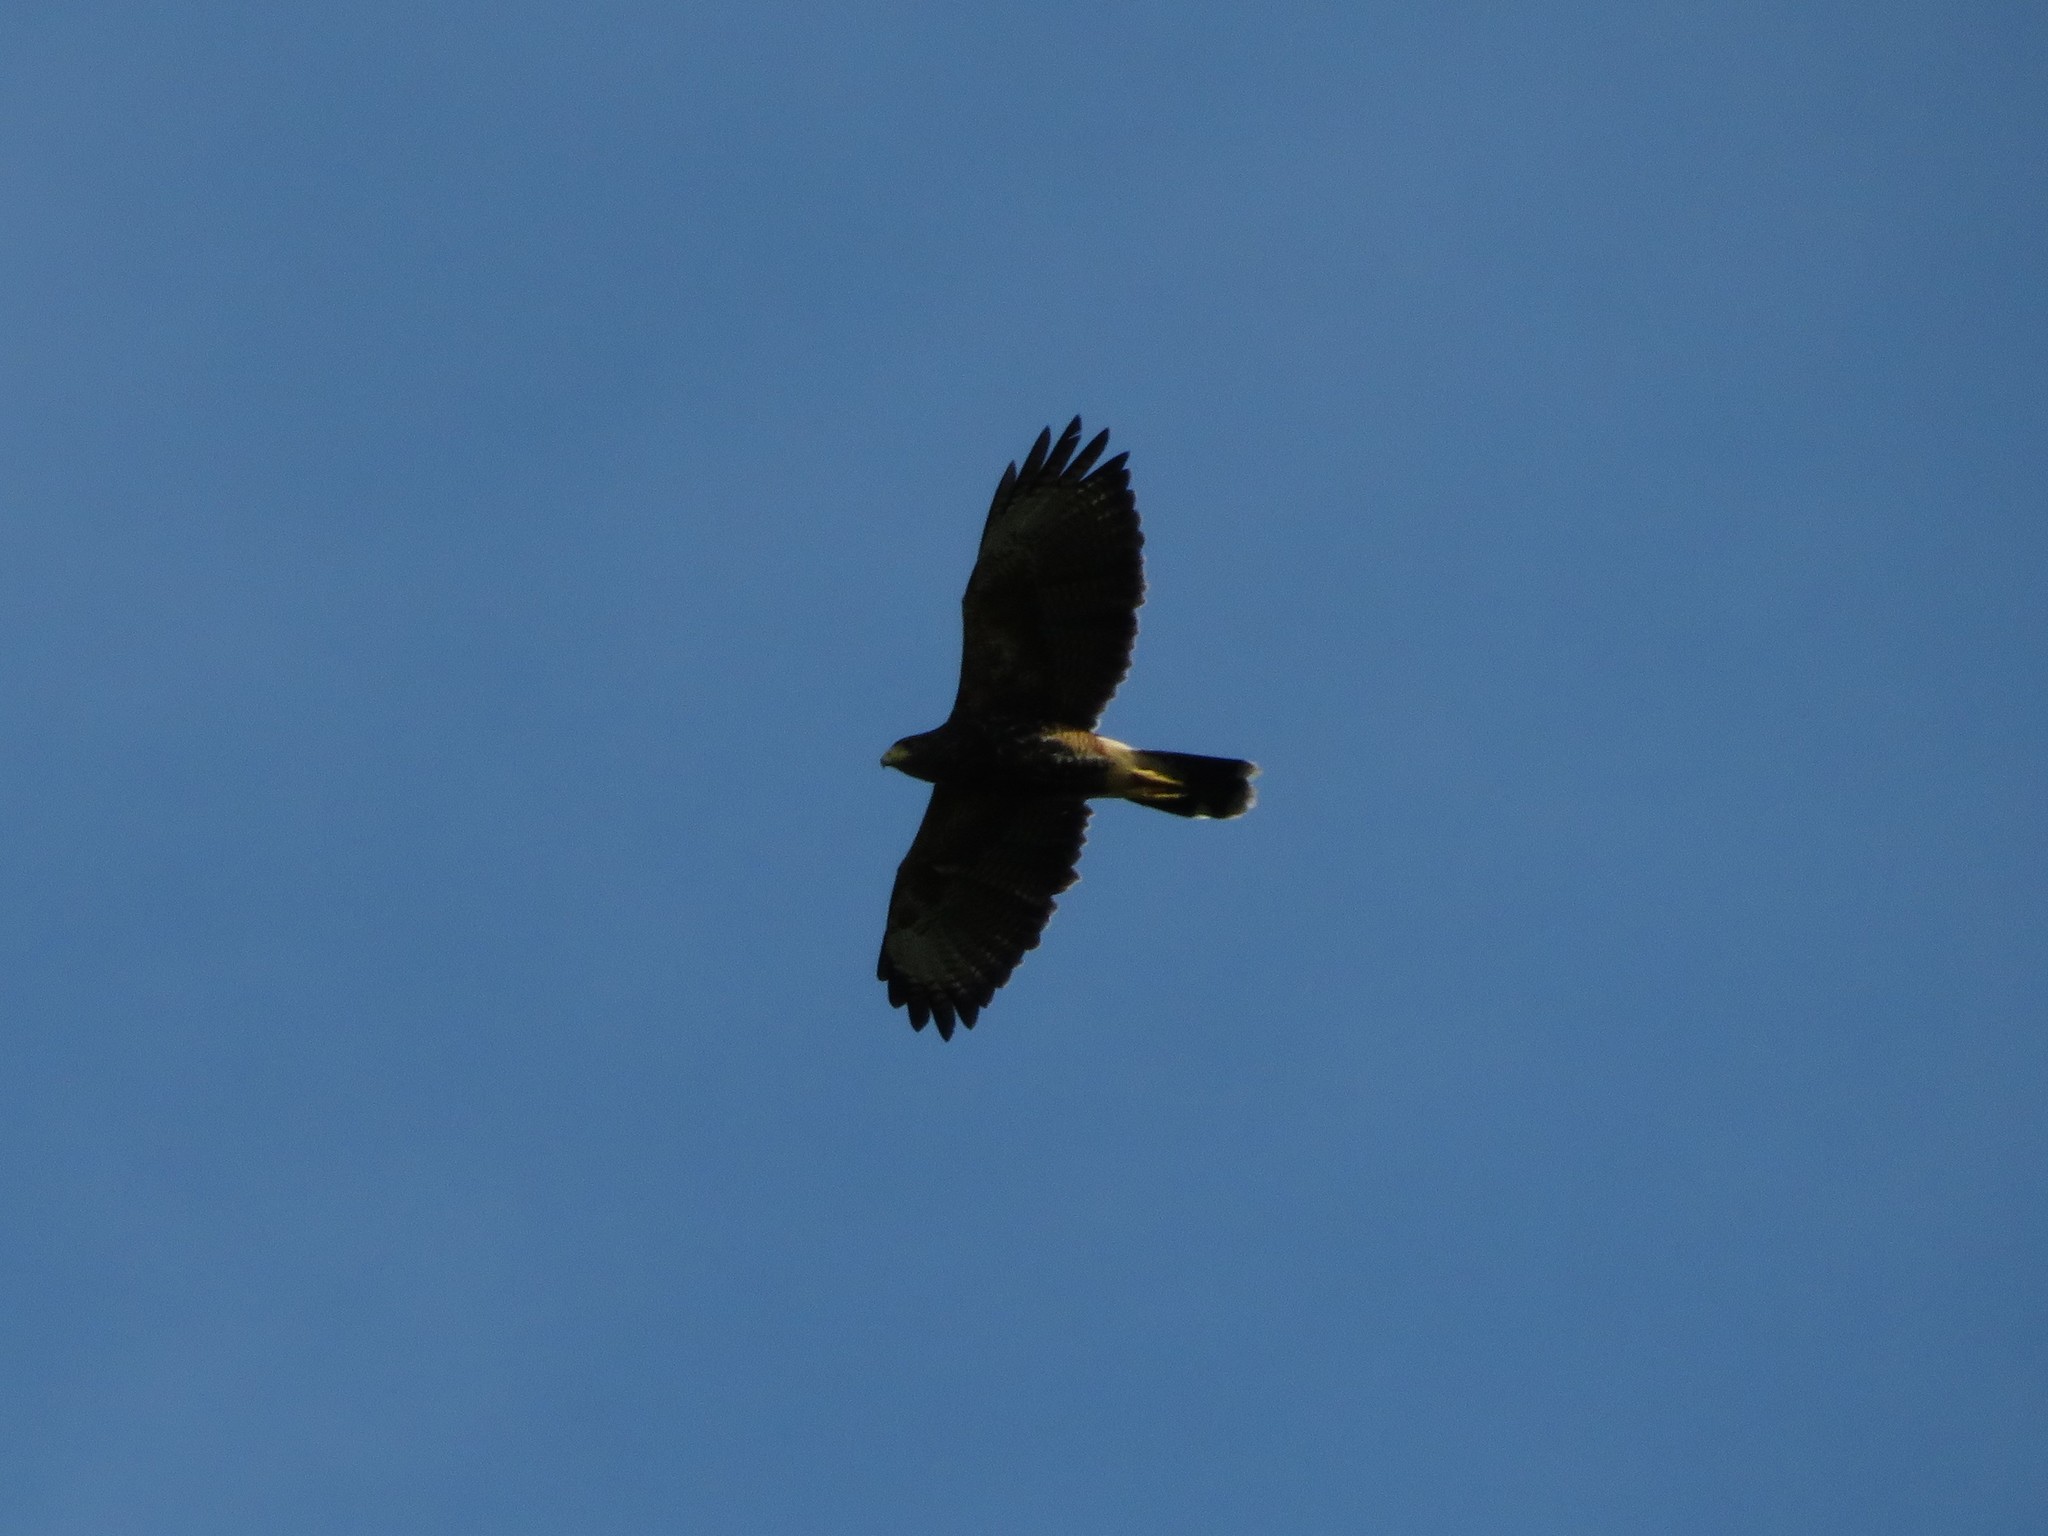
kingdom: Animalia
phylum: Chordata
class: Aves
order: Accipitriformes
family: Accipitridae
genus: Parabuteo
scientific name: Parabuteo unicinctus
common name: Harris's hawk
